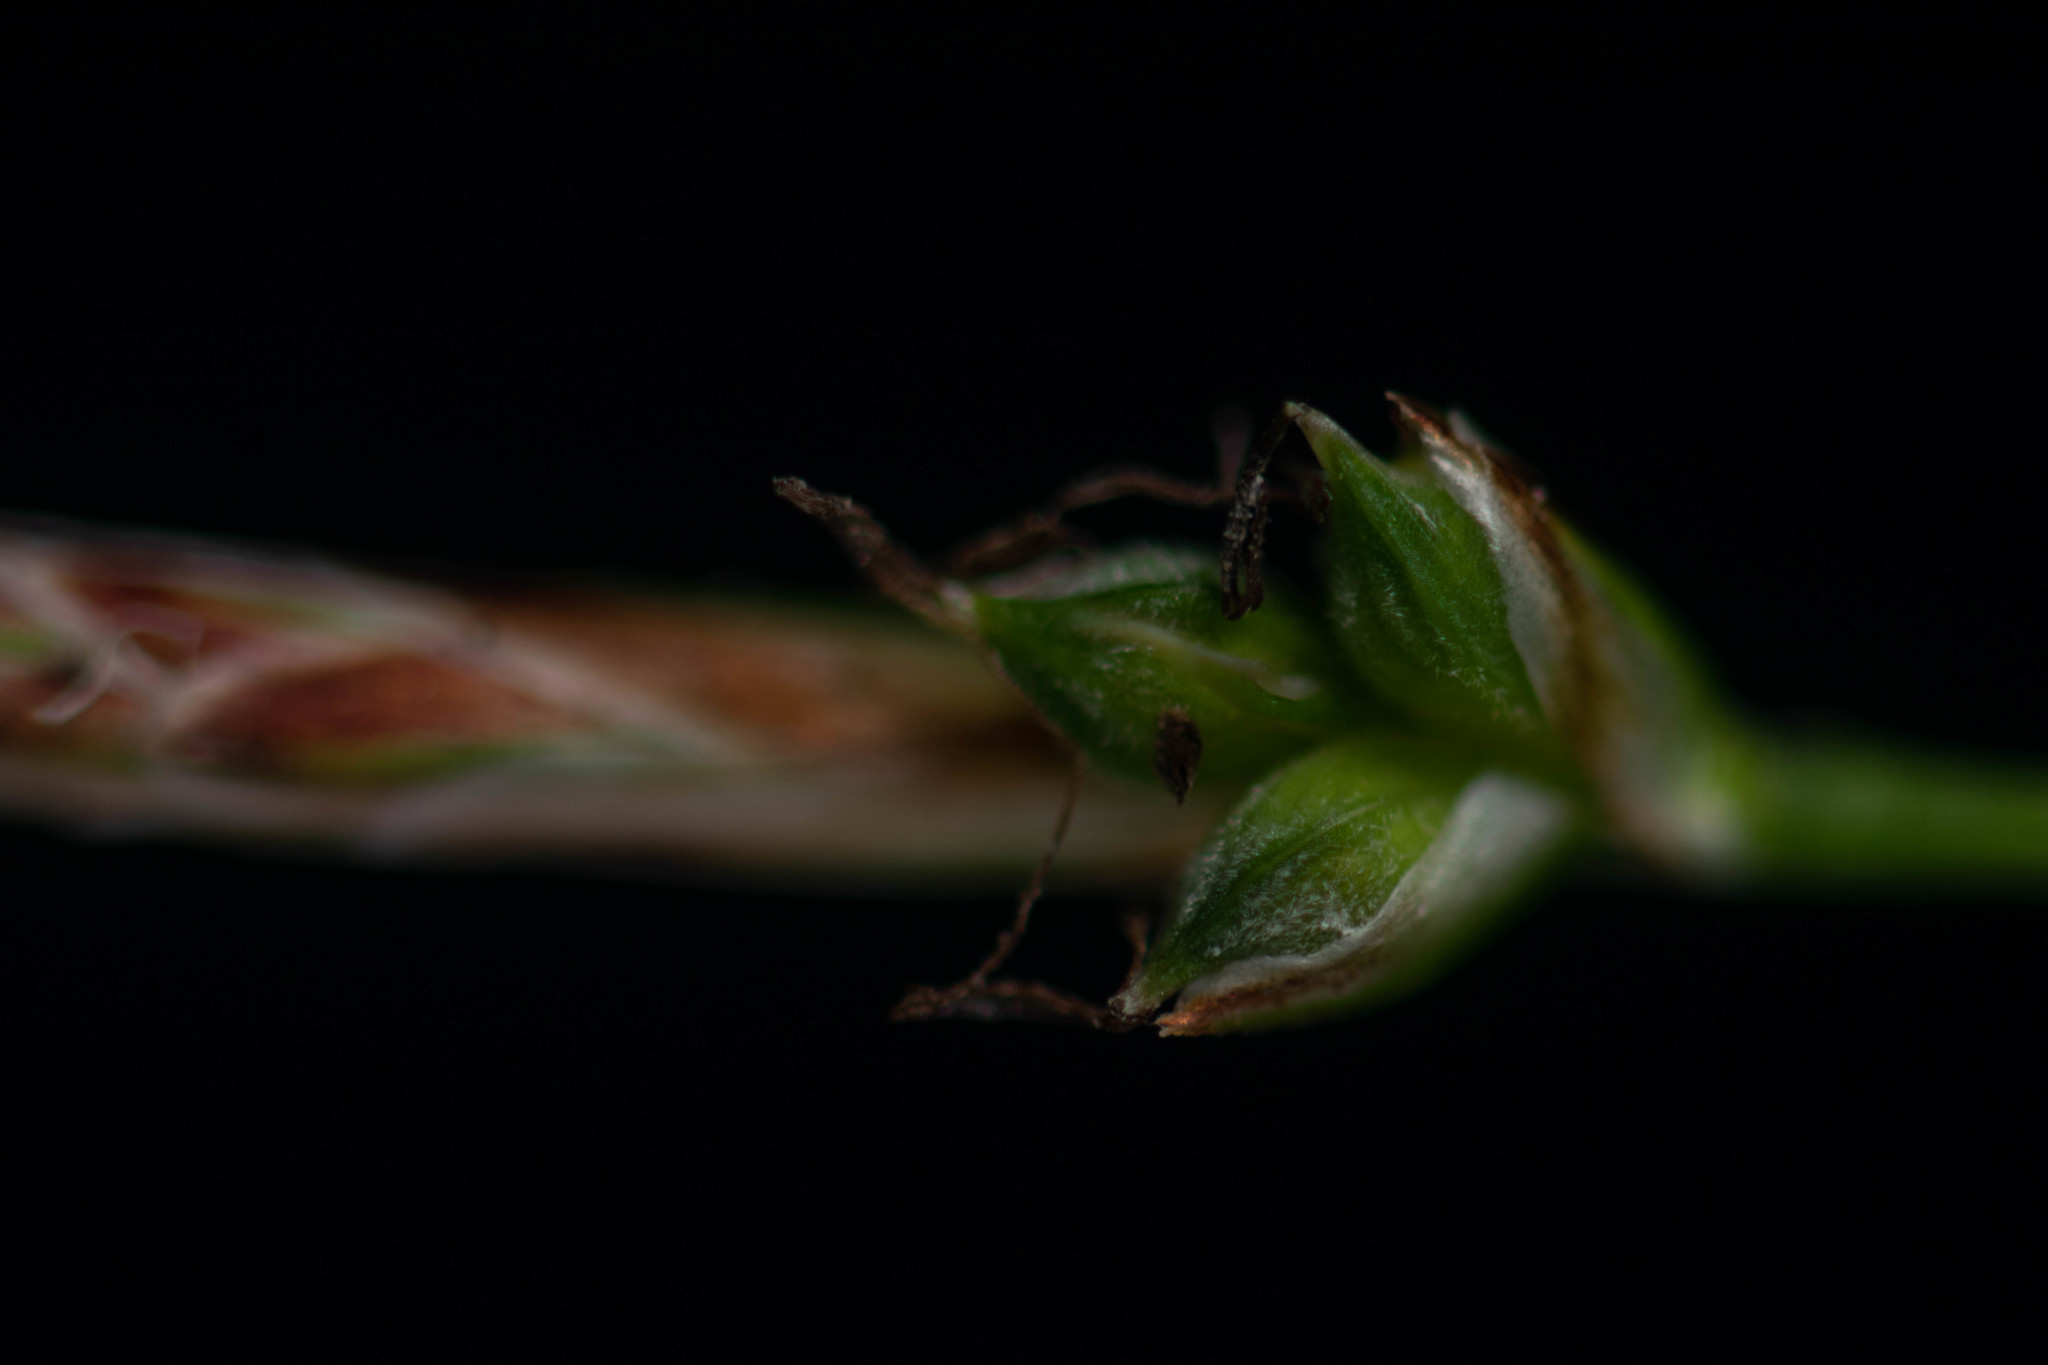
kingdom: Plantae
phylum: Tracheophyta
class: Liliopsida
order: Poales
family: Cyperaceae
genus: Carex
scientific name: Carex communis
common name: Colonial oak sedge
